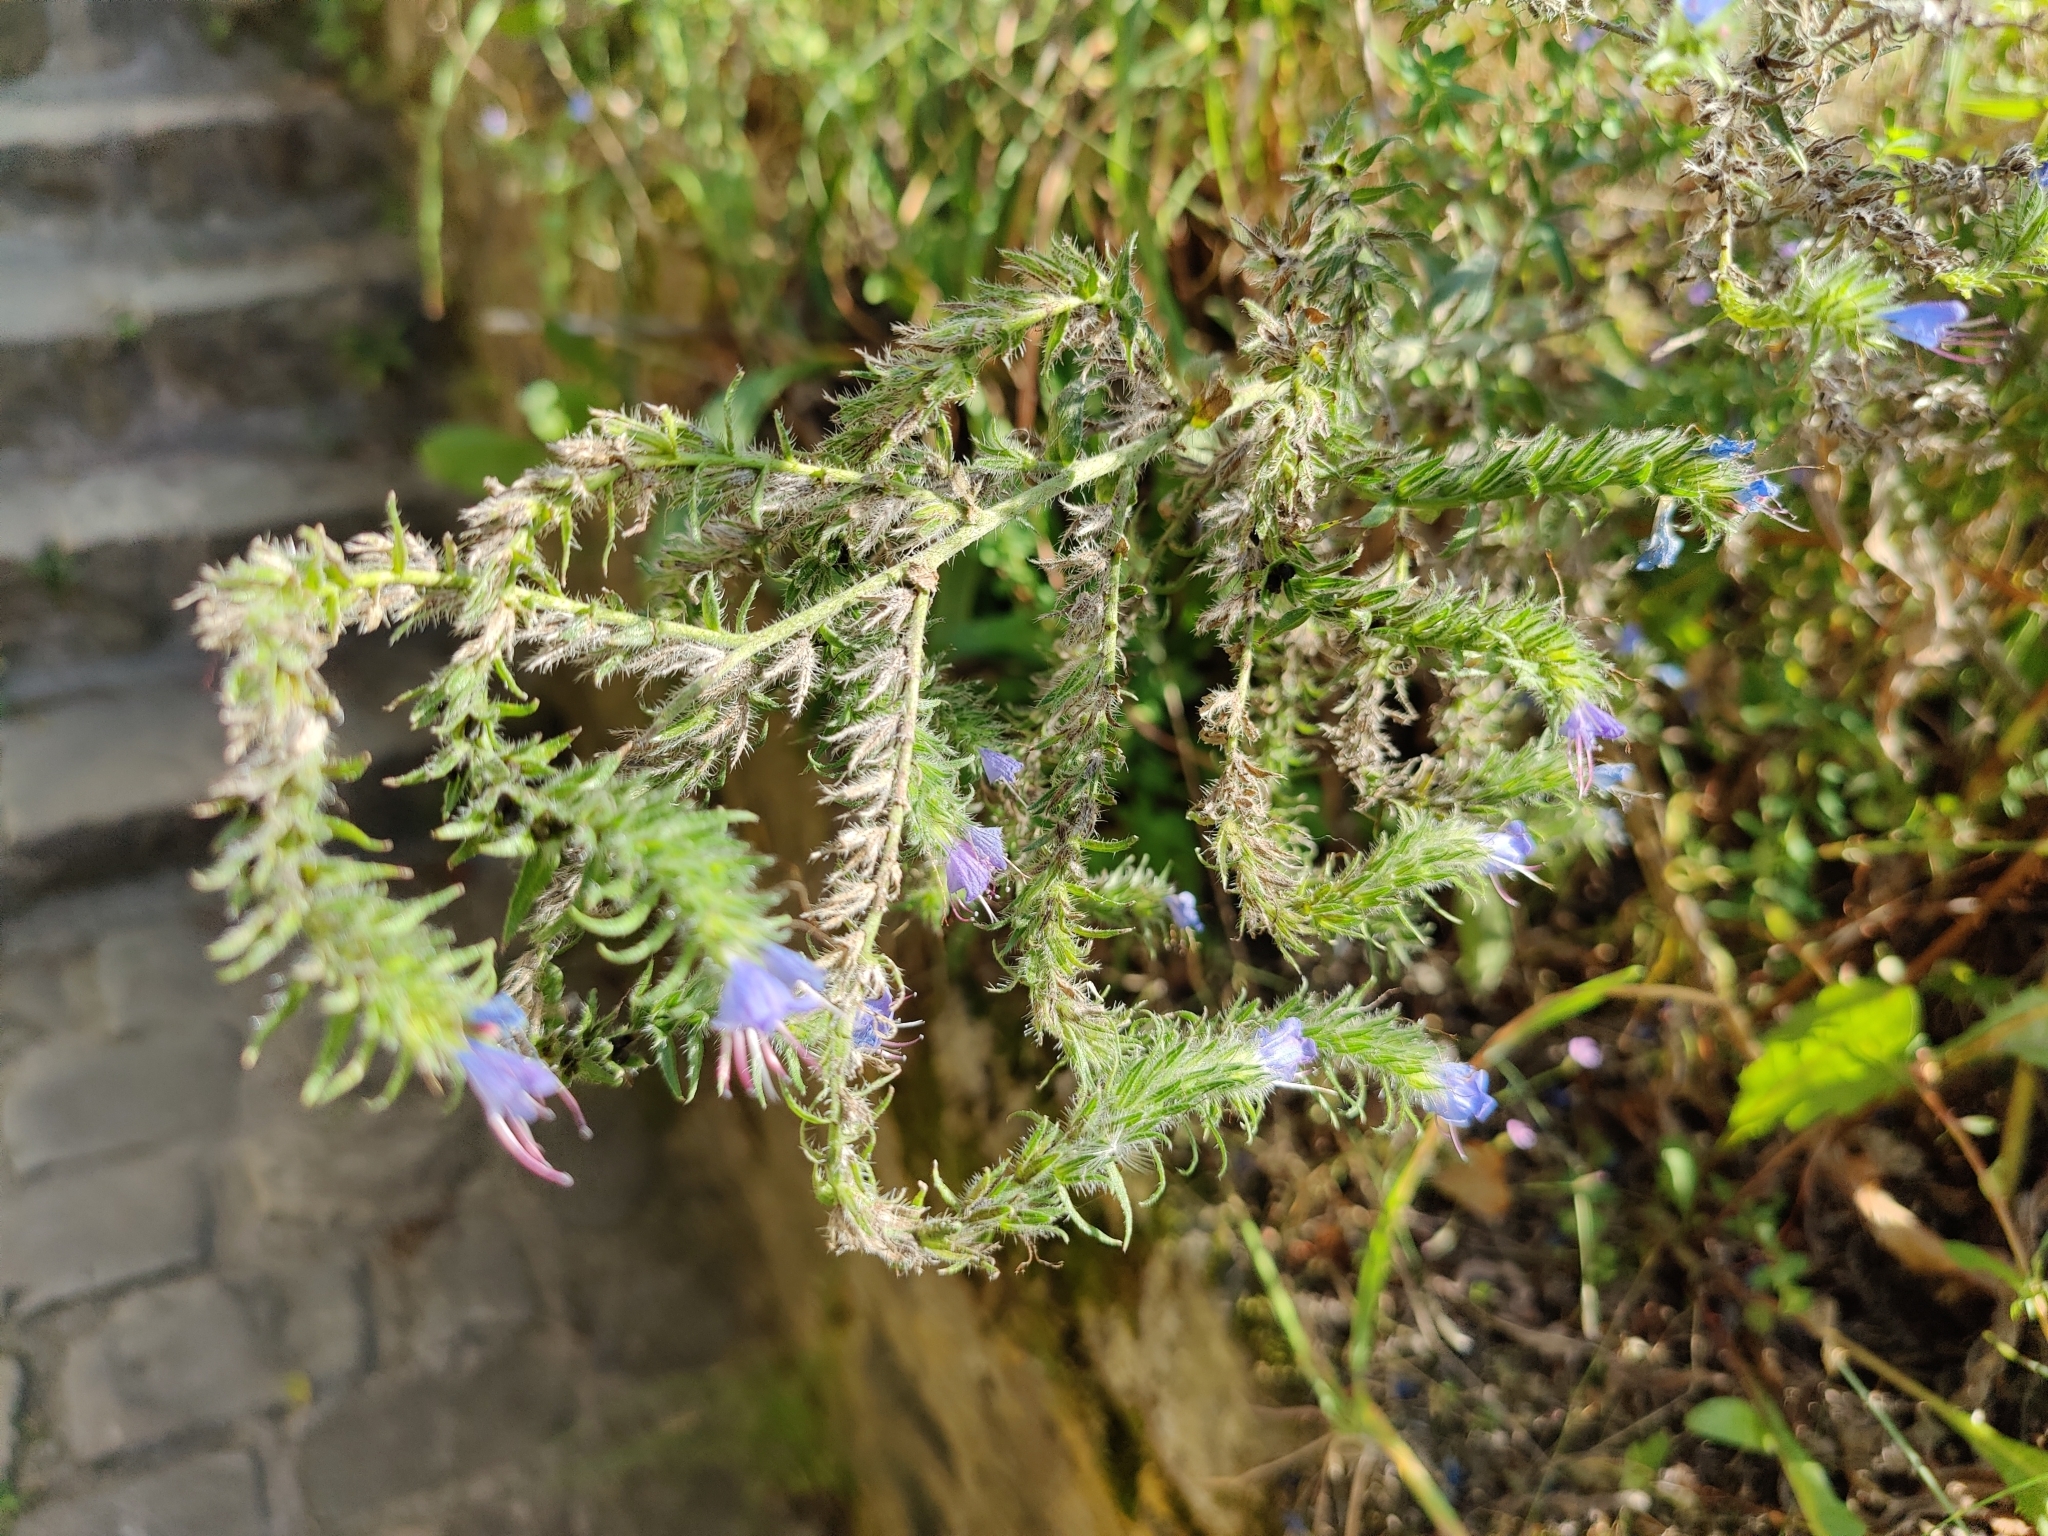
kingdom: Plantae
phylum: Tracheophyta
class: Magnoliopsida
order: Boraginales
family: Boraginaceae
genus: Echium
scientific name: Echium vulgare
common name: Common viper's bugloss
